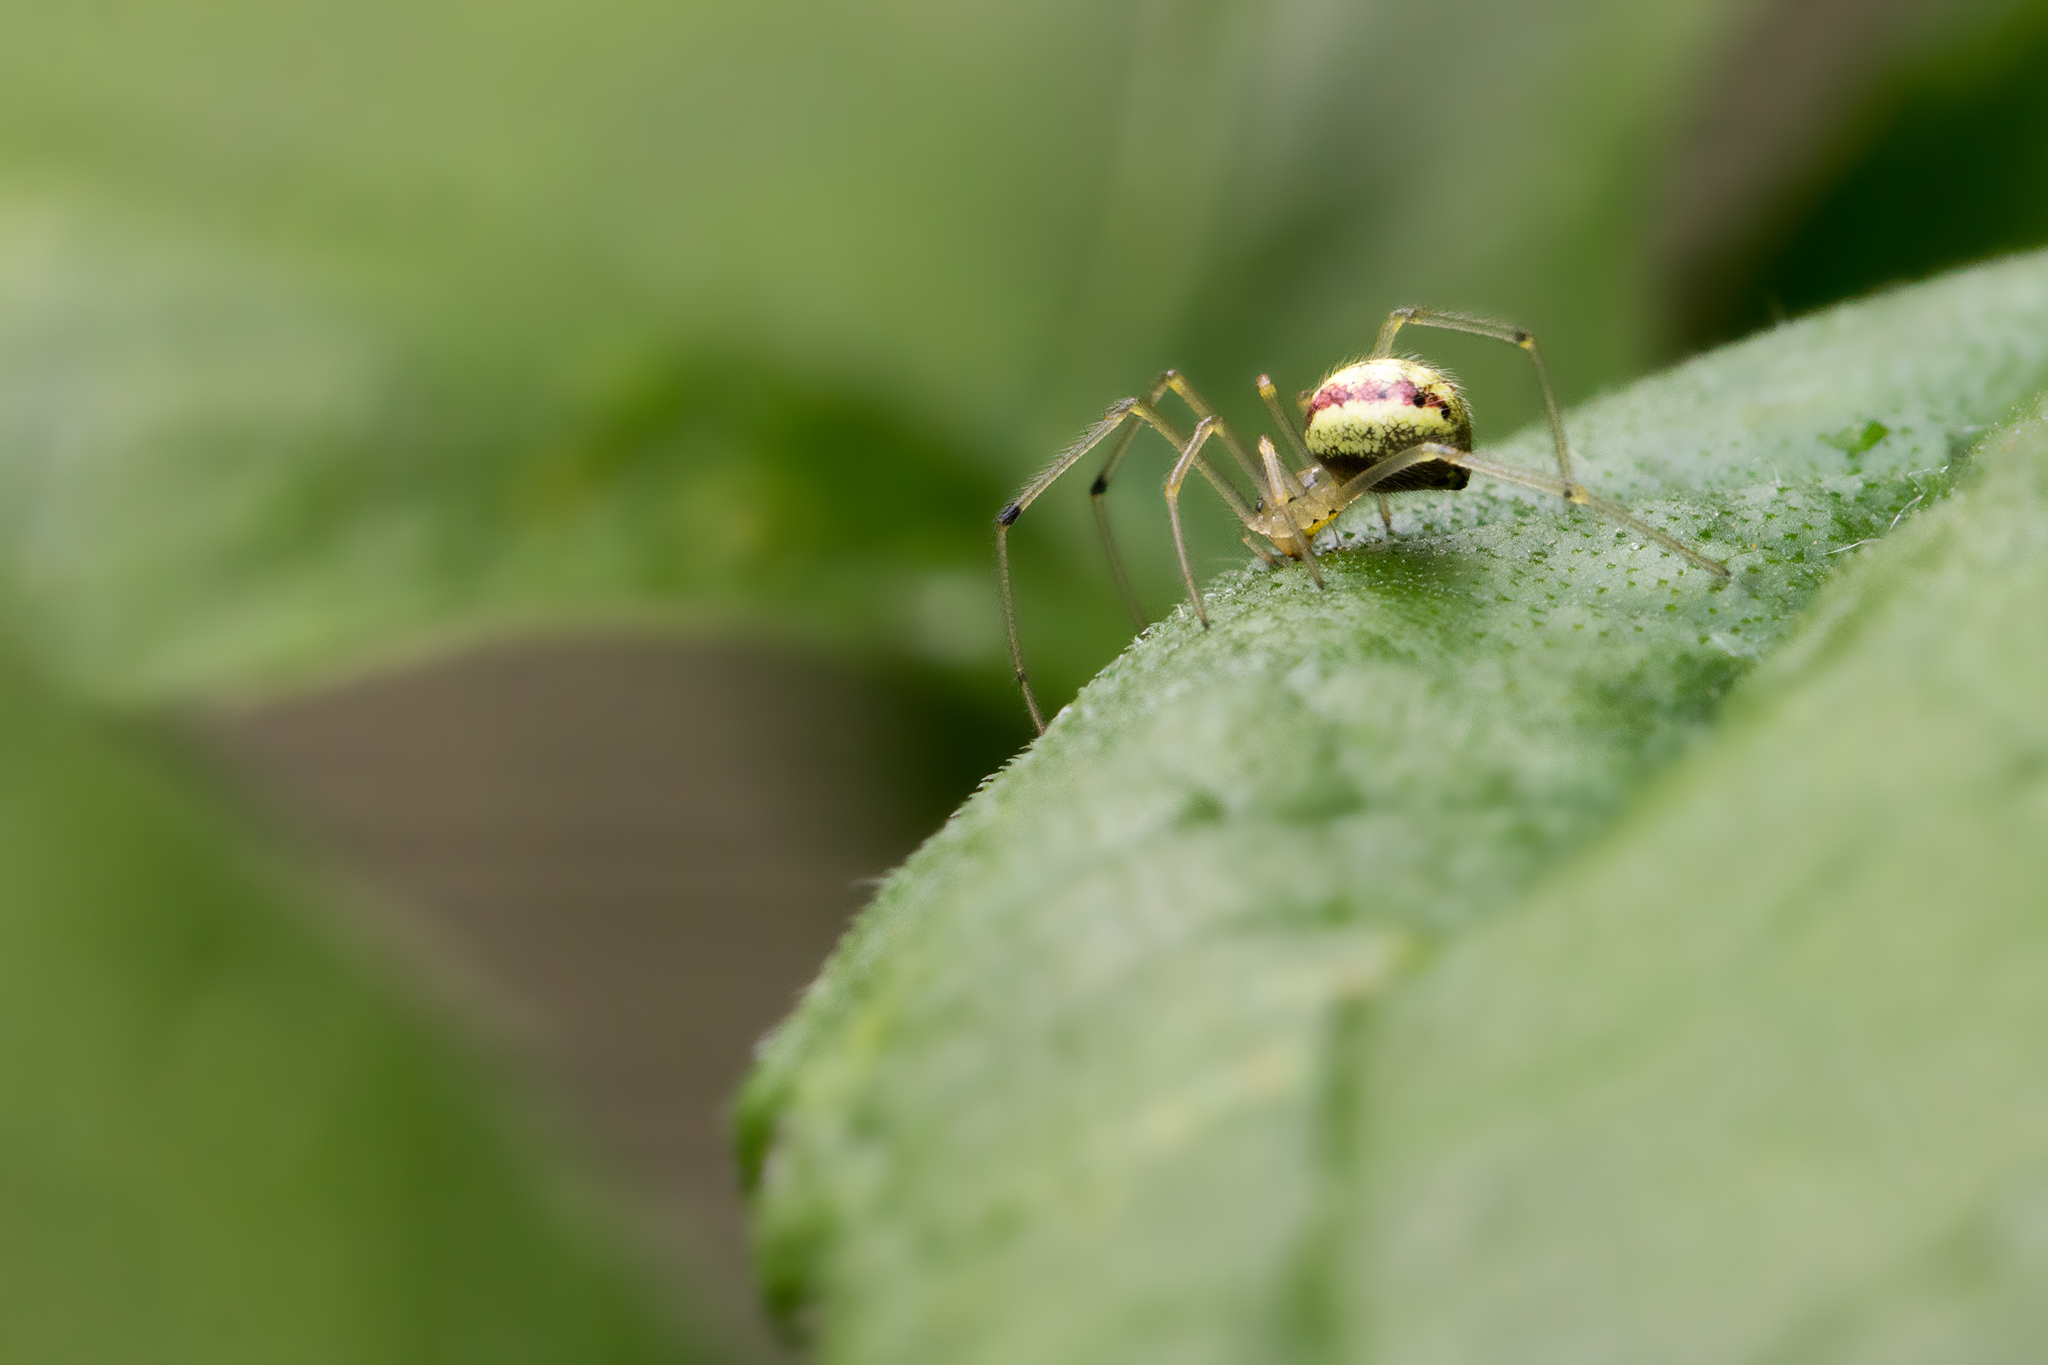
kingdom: Animalia
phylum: Arthropoda
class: Arachnida
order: Araneae
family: Theridiidae
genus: Enoplognatha
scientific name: Enoplognatha ovata
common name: Common candy-striped spider
